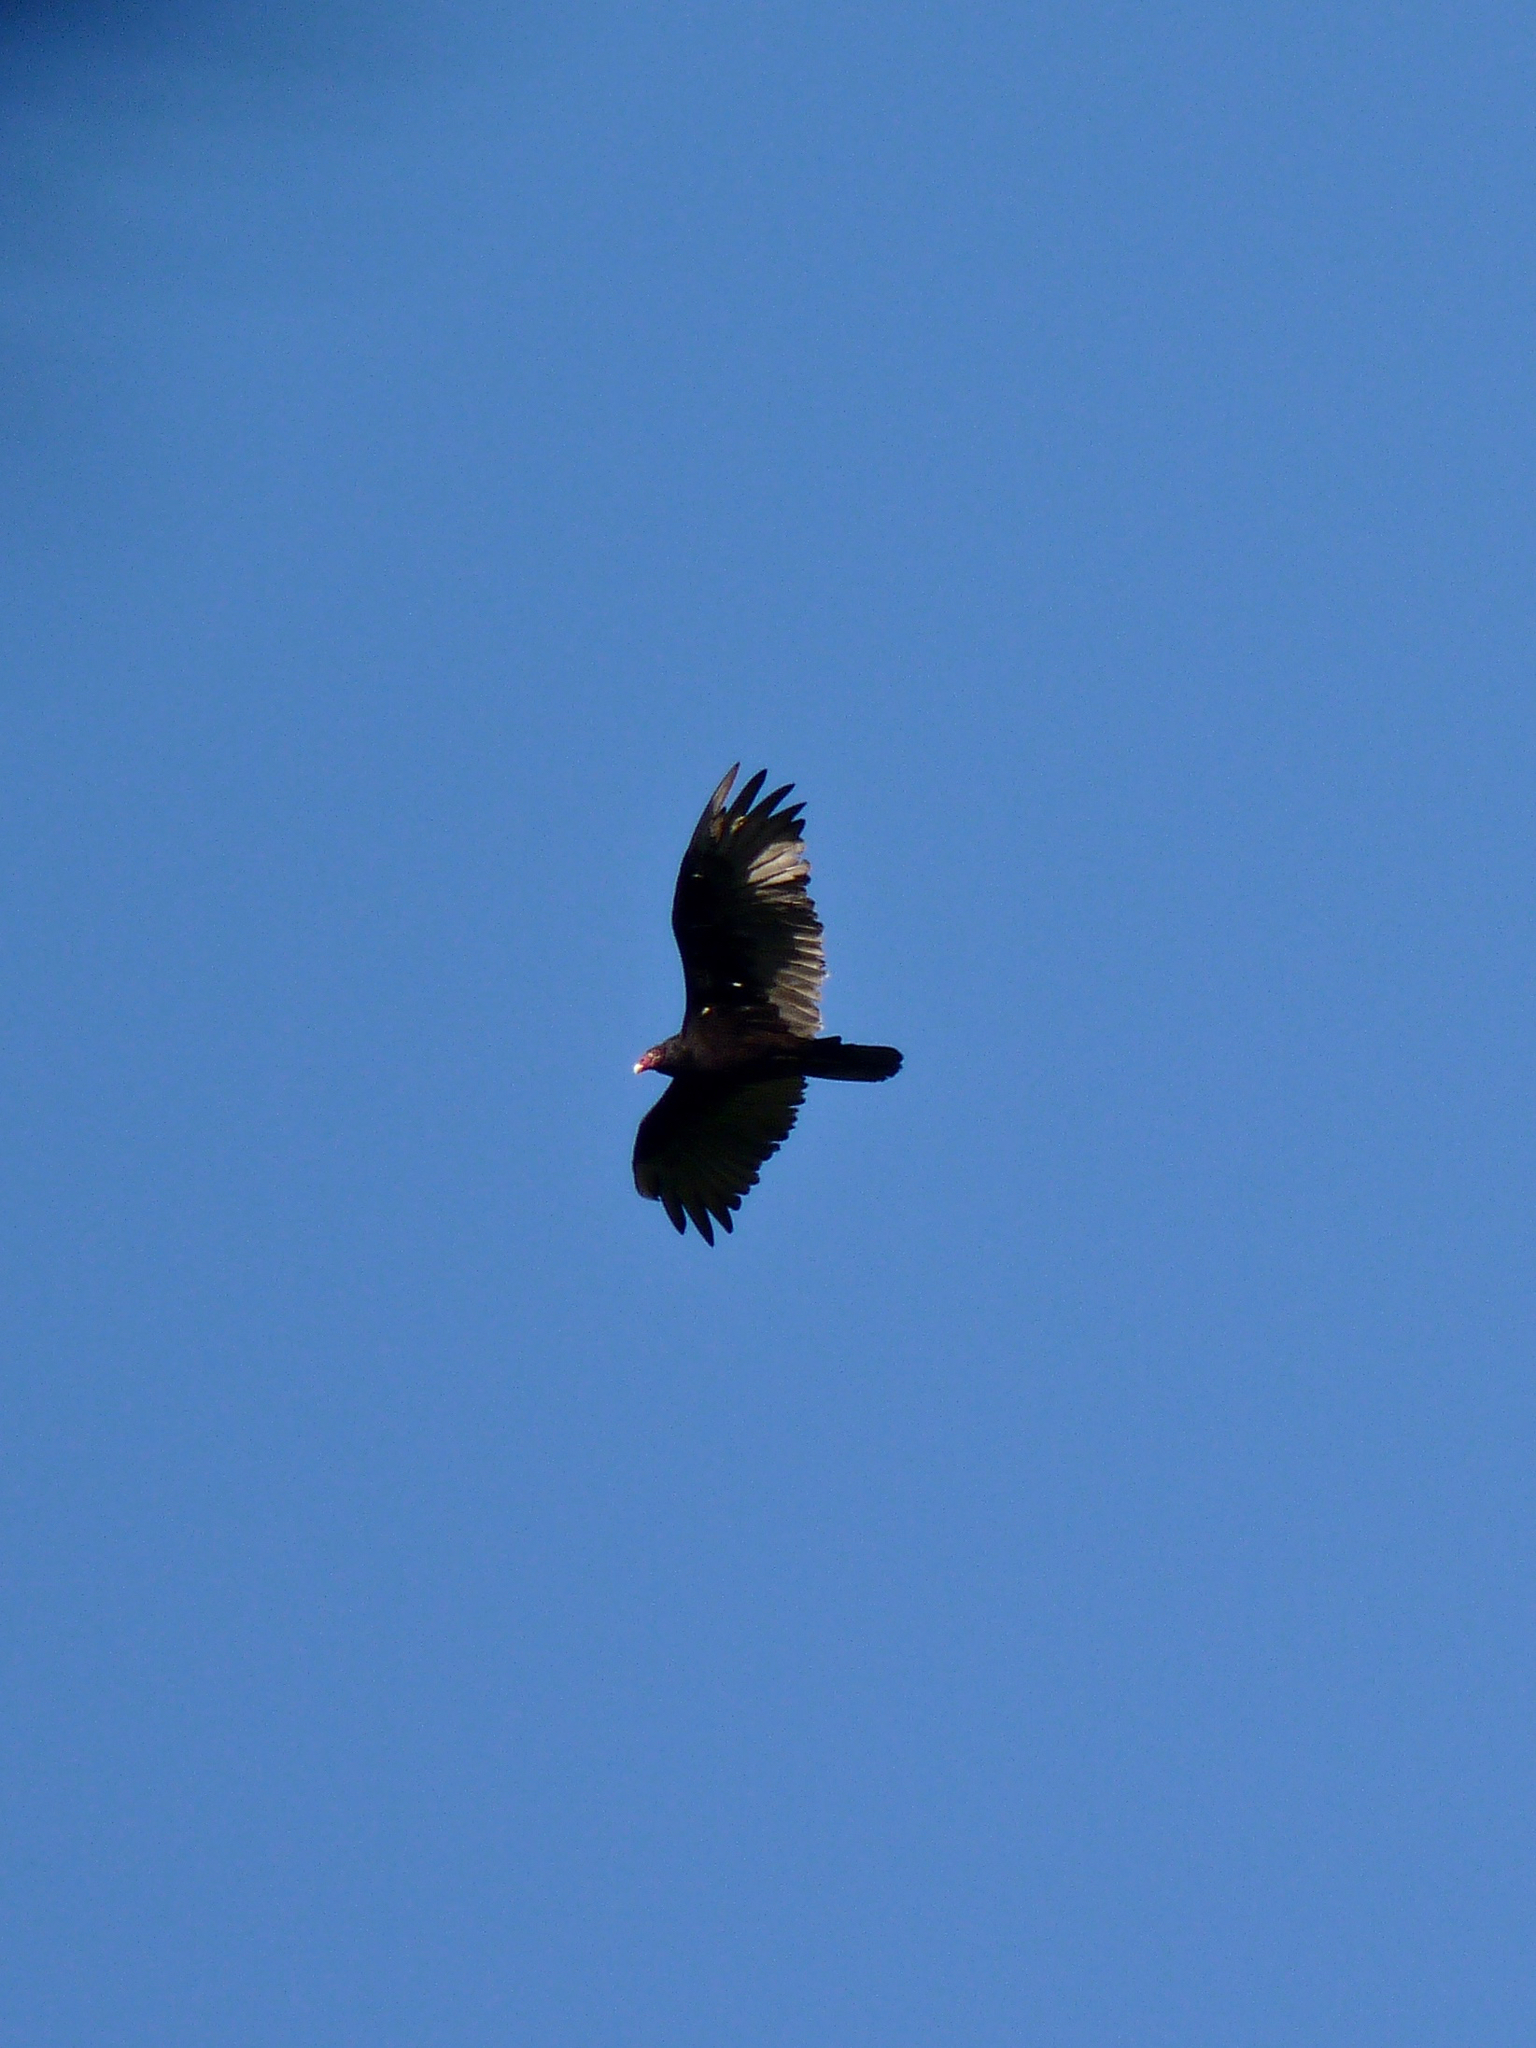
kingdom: Animalia
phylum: Chordata
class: Aves
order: Accipitriformes
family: Cathartidae
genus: Cathartes
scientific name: Cathartes aura
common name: Turkey vulture
